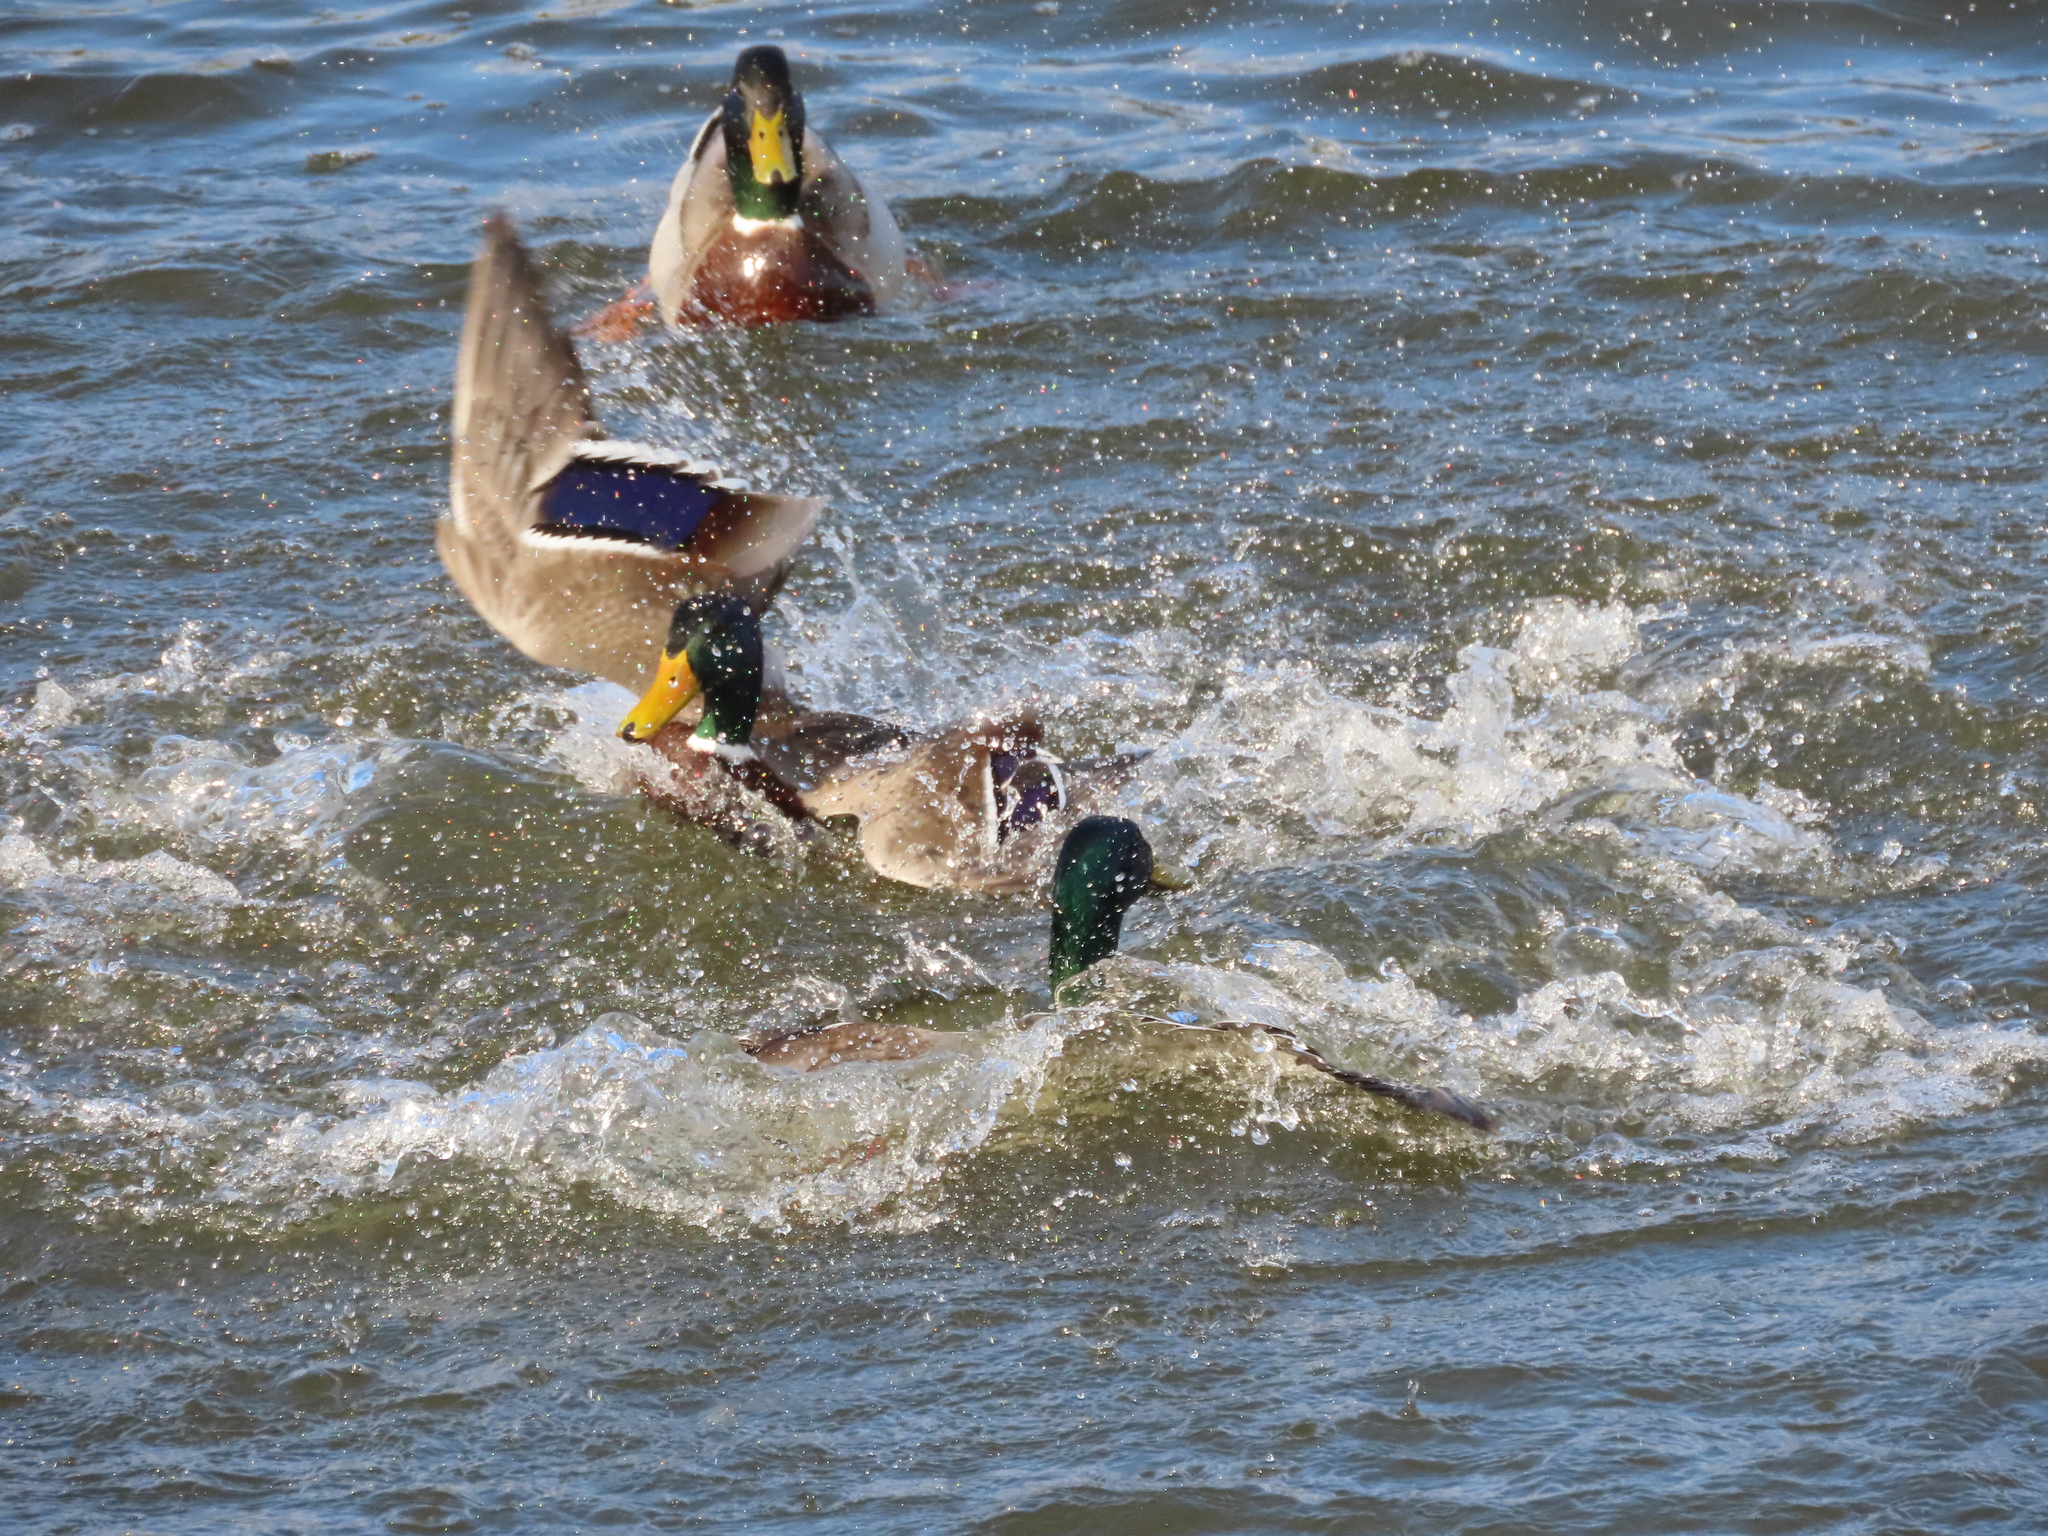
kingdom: Animalia
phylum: Chordata
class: Aves
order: Anseriformes
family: Anatidae
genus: Anas
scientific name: Anas platyrhynchos
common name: Mallard
